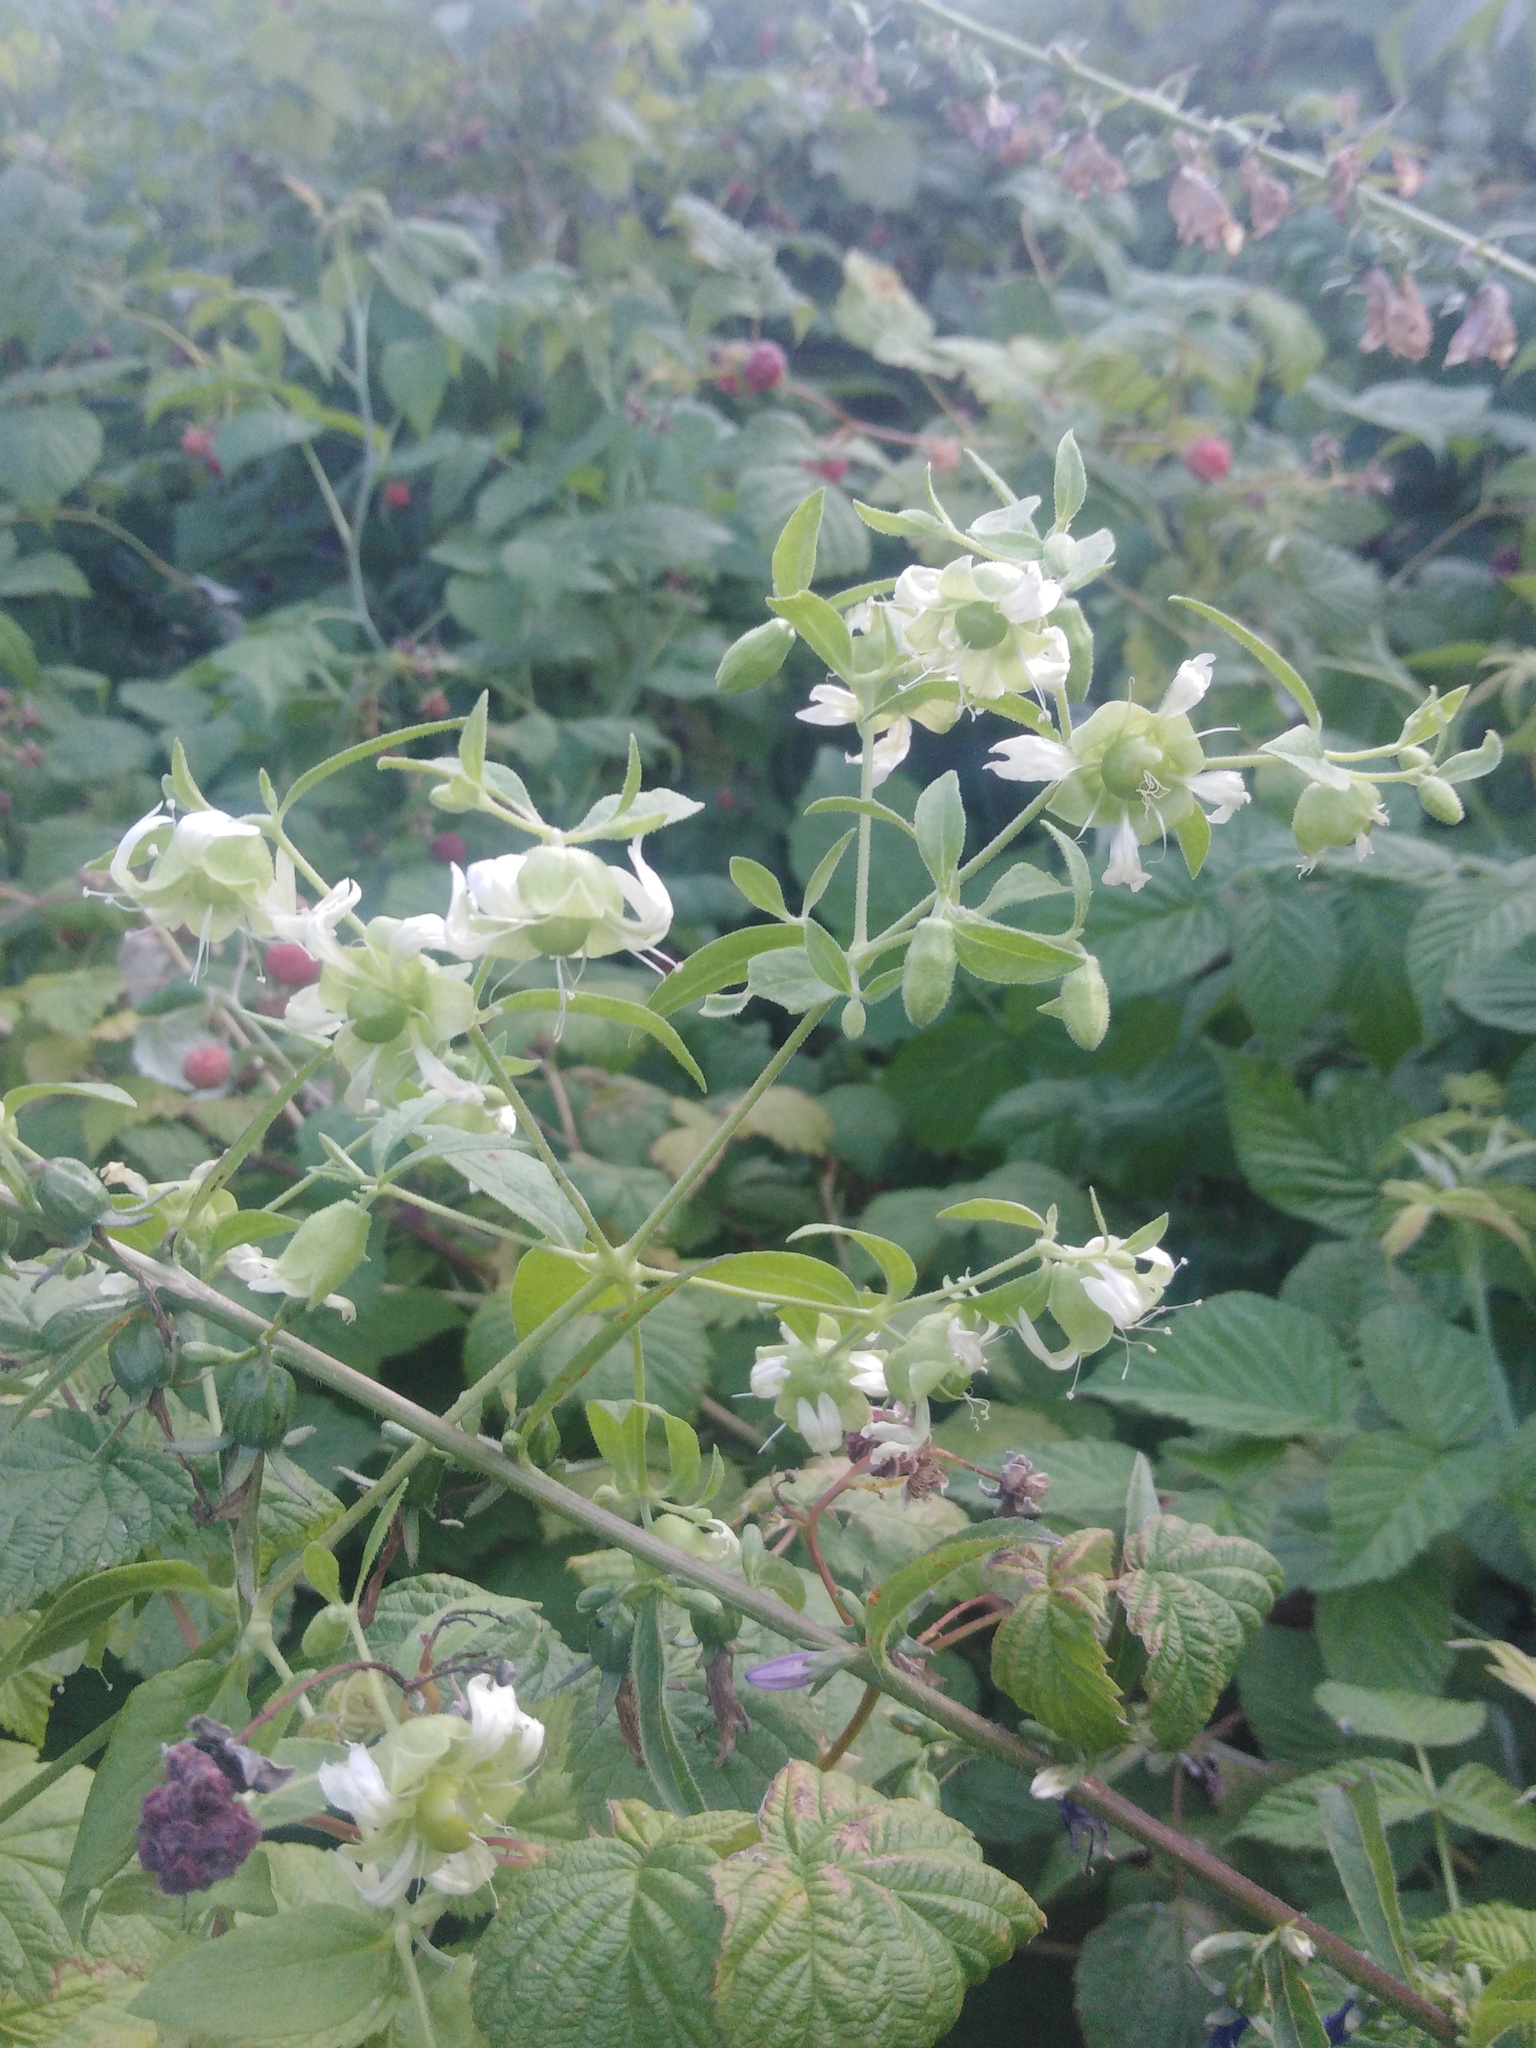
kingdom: Plantae
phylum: Tracheophyta
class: Magnoliopsida
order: Caryophyllales
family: Caryophyllaceae
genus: Silene
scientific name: Silene baccifera
